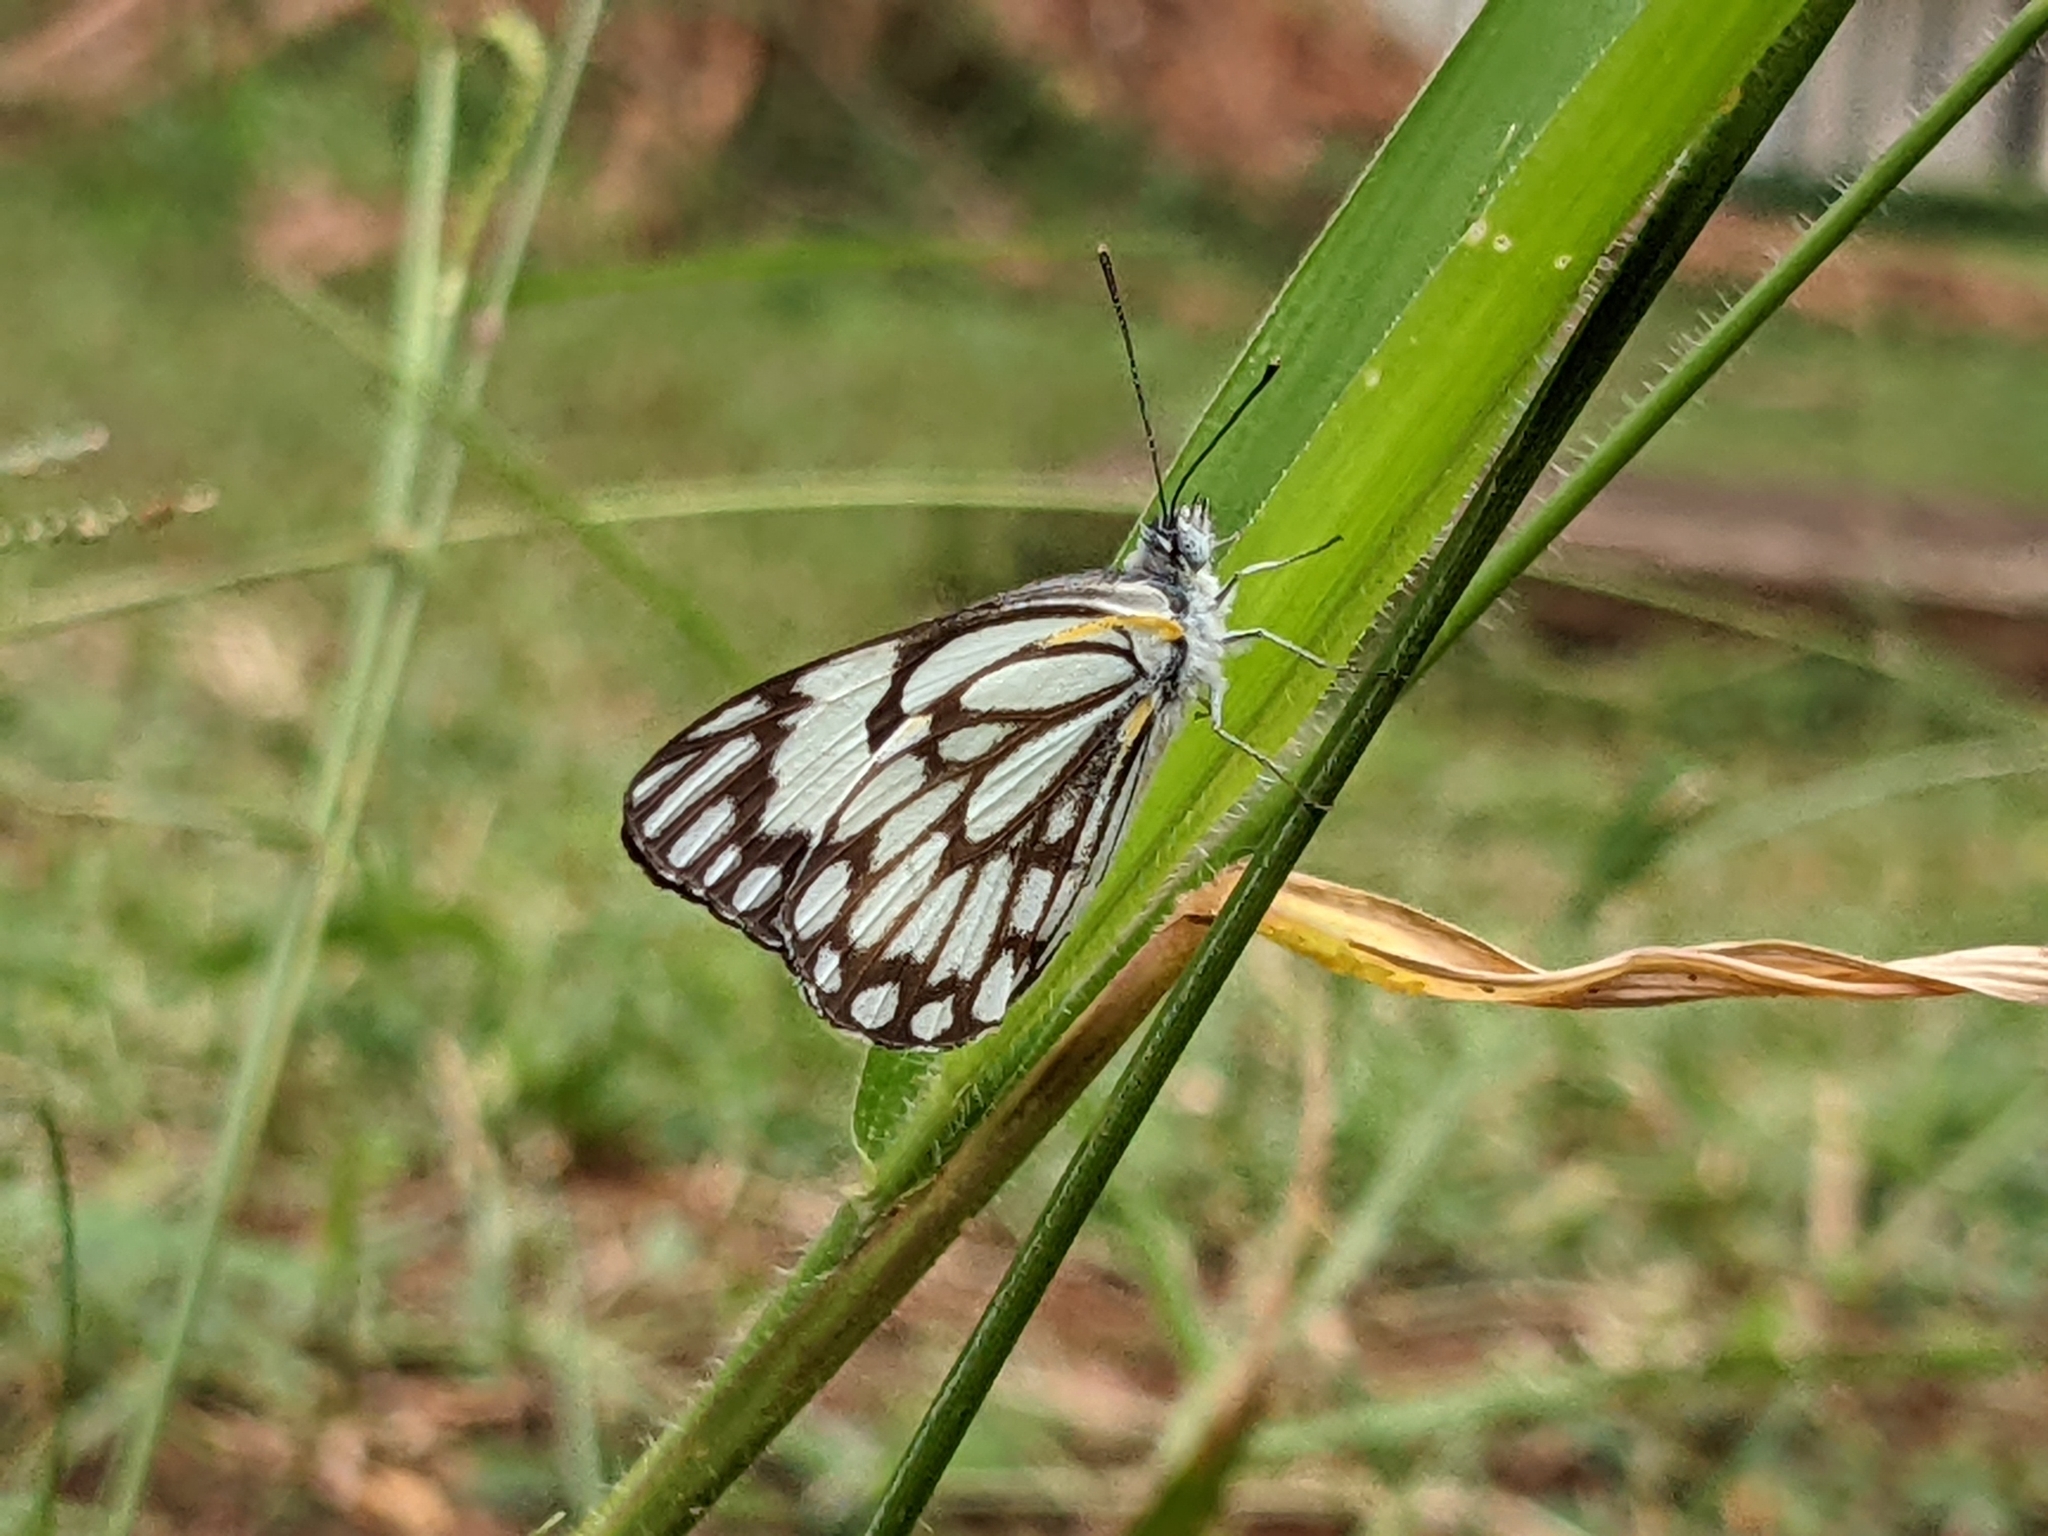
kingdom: Animalia
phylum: Arthropoda
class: Insecta
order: Lepidoptera
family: Pieridae
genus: Belenois
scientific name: Belenois aurota
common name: Brown-veined white
